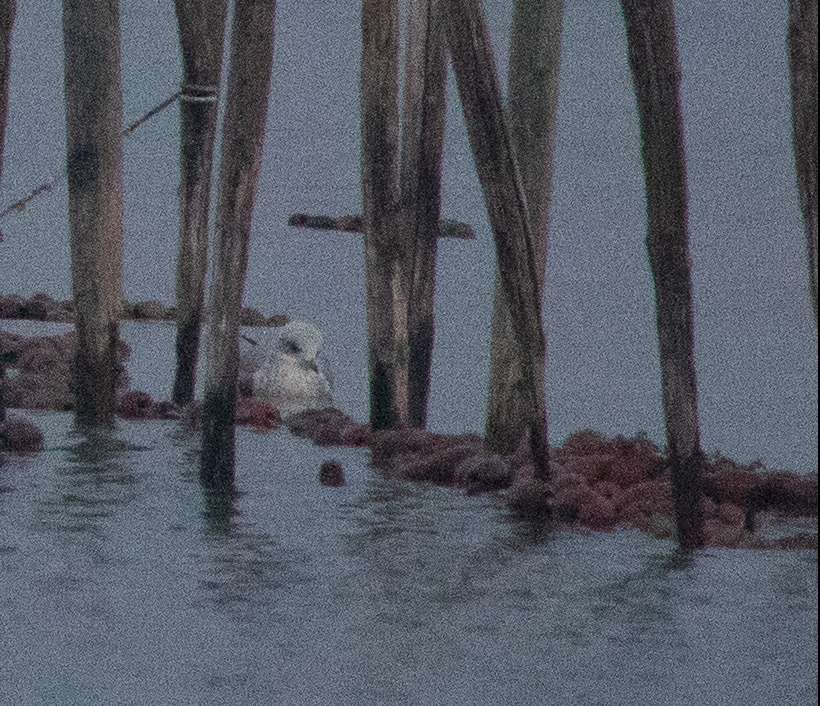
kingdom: Animalia
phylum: Chordata
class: Aves
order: Charadriiformes
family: Laridae
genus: Larus
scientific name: Larus canus
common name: Mew gull
